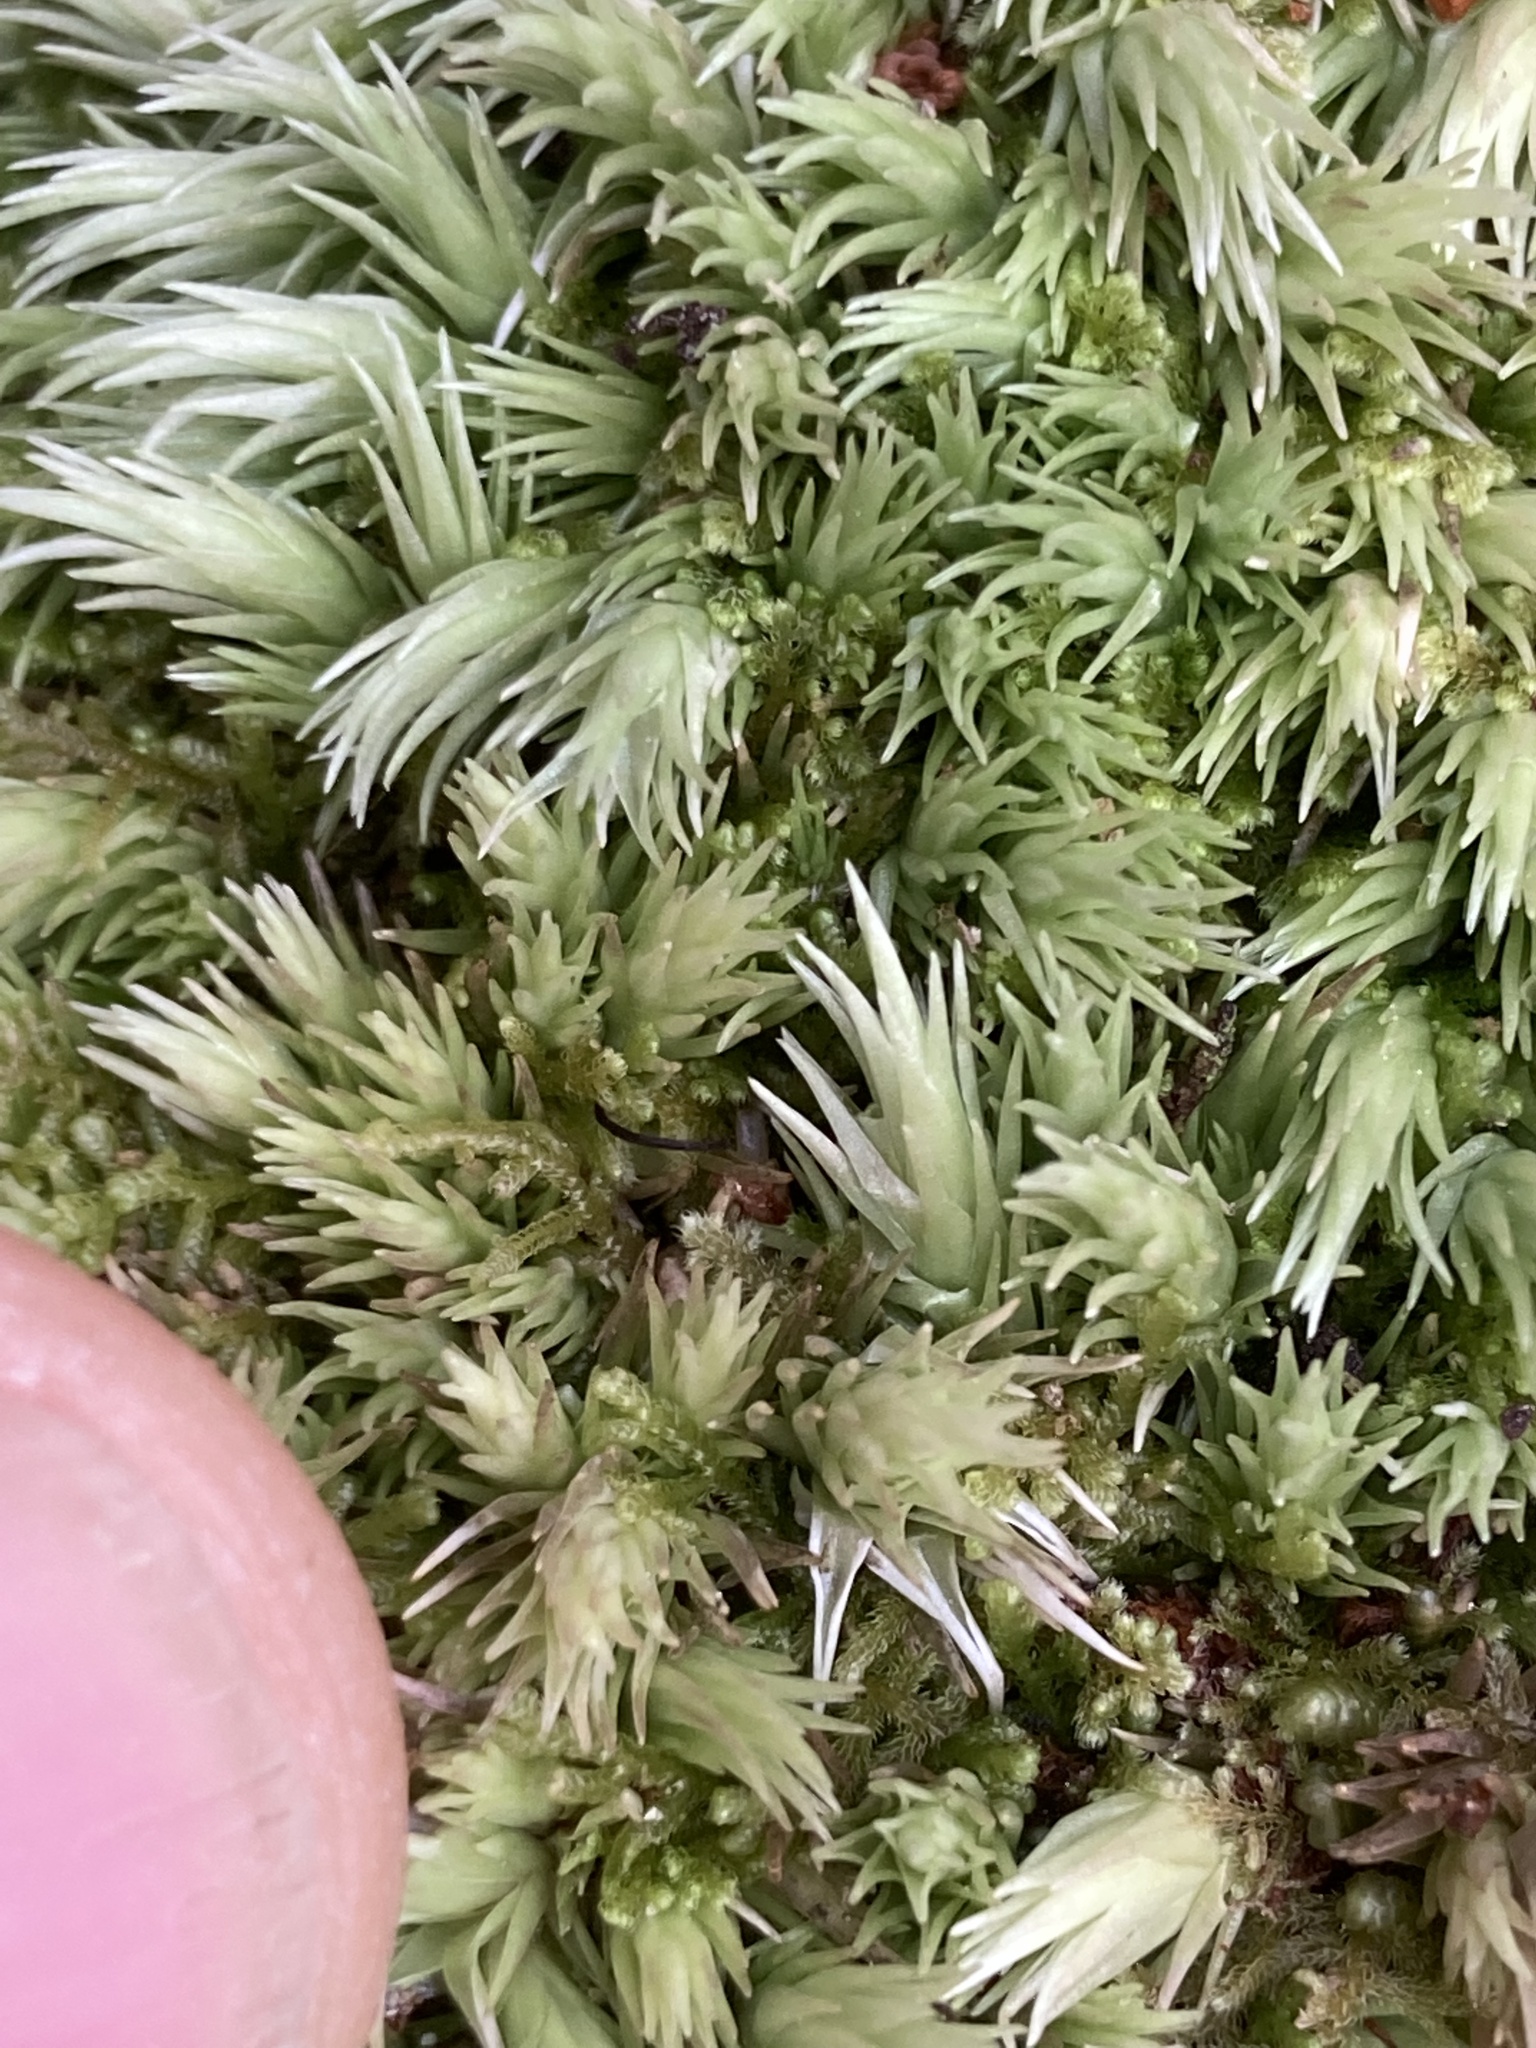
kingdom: Plantae
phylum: Bryophyta
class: Bryopsida
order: Dicranales
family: Leucobryaceae
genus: Leucobryum
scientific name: Leucobryum javense
